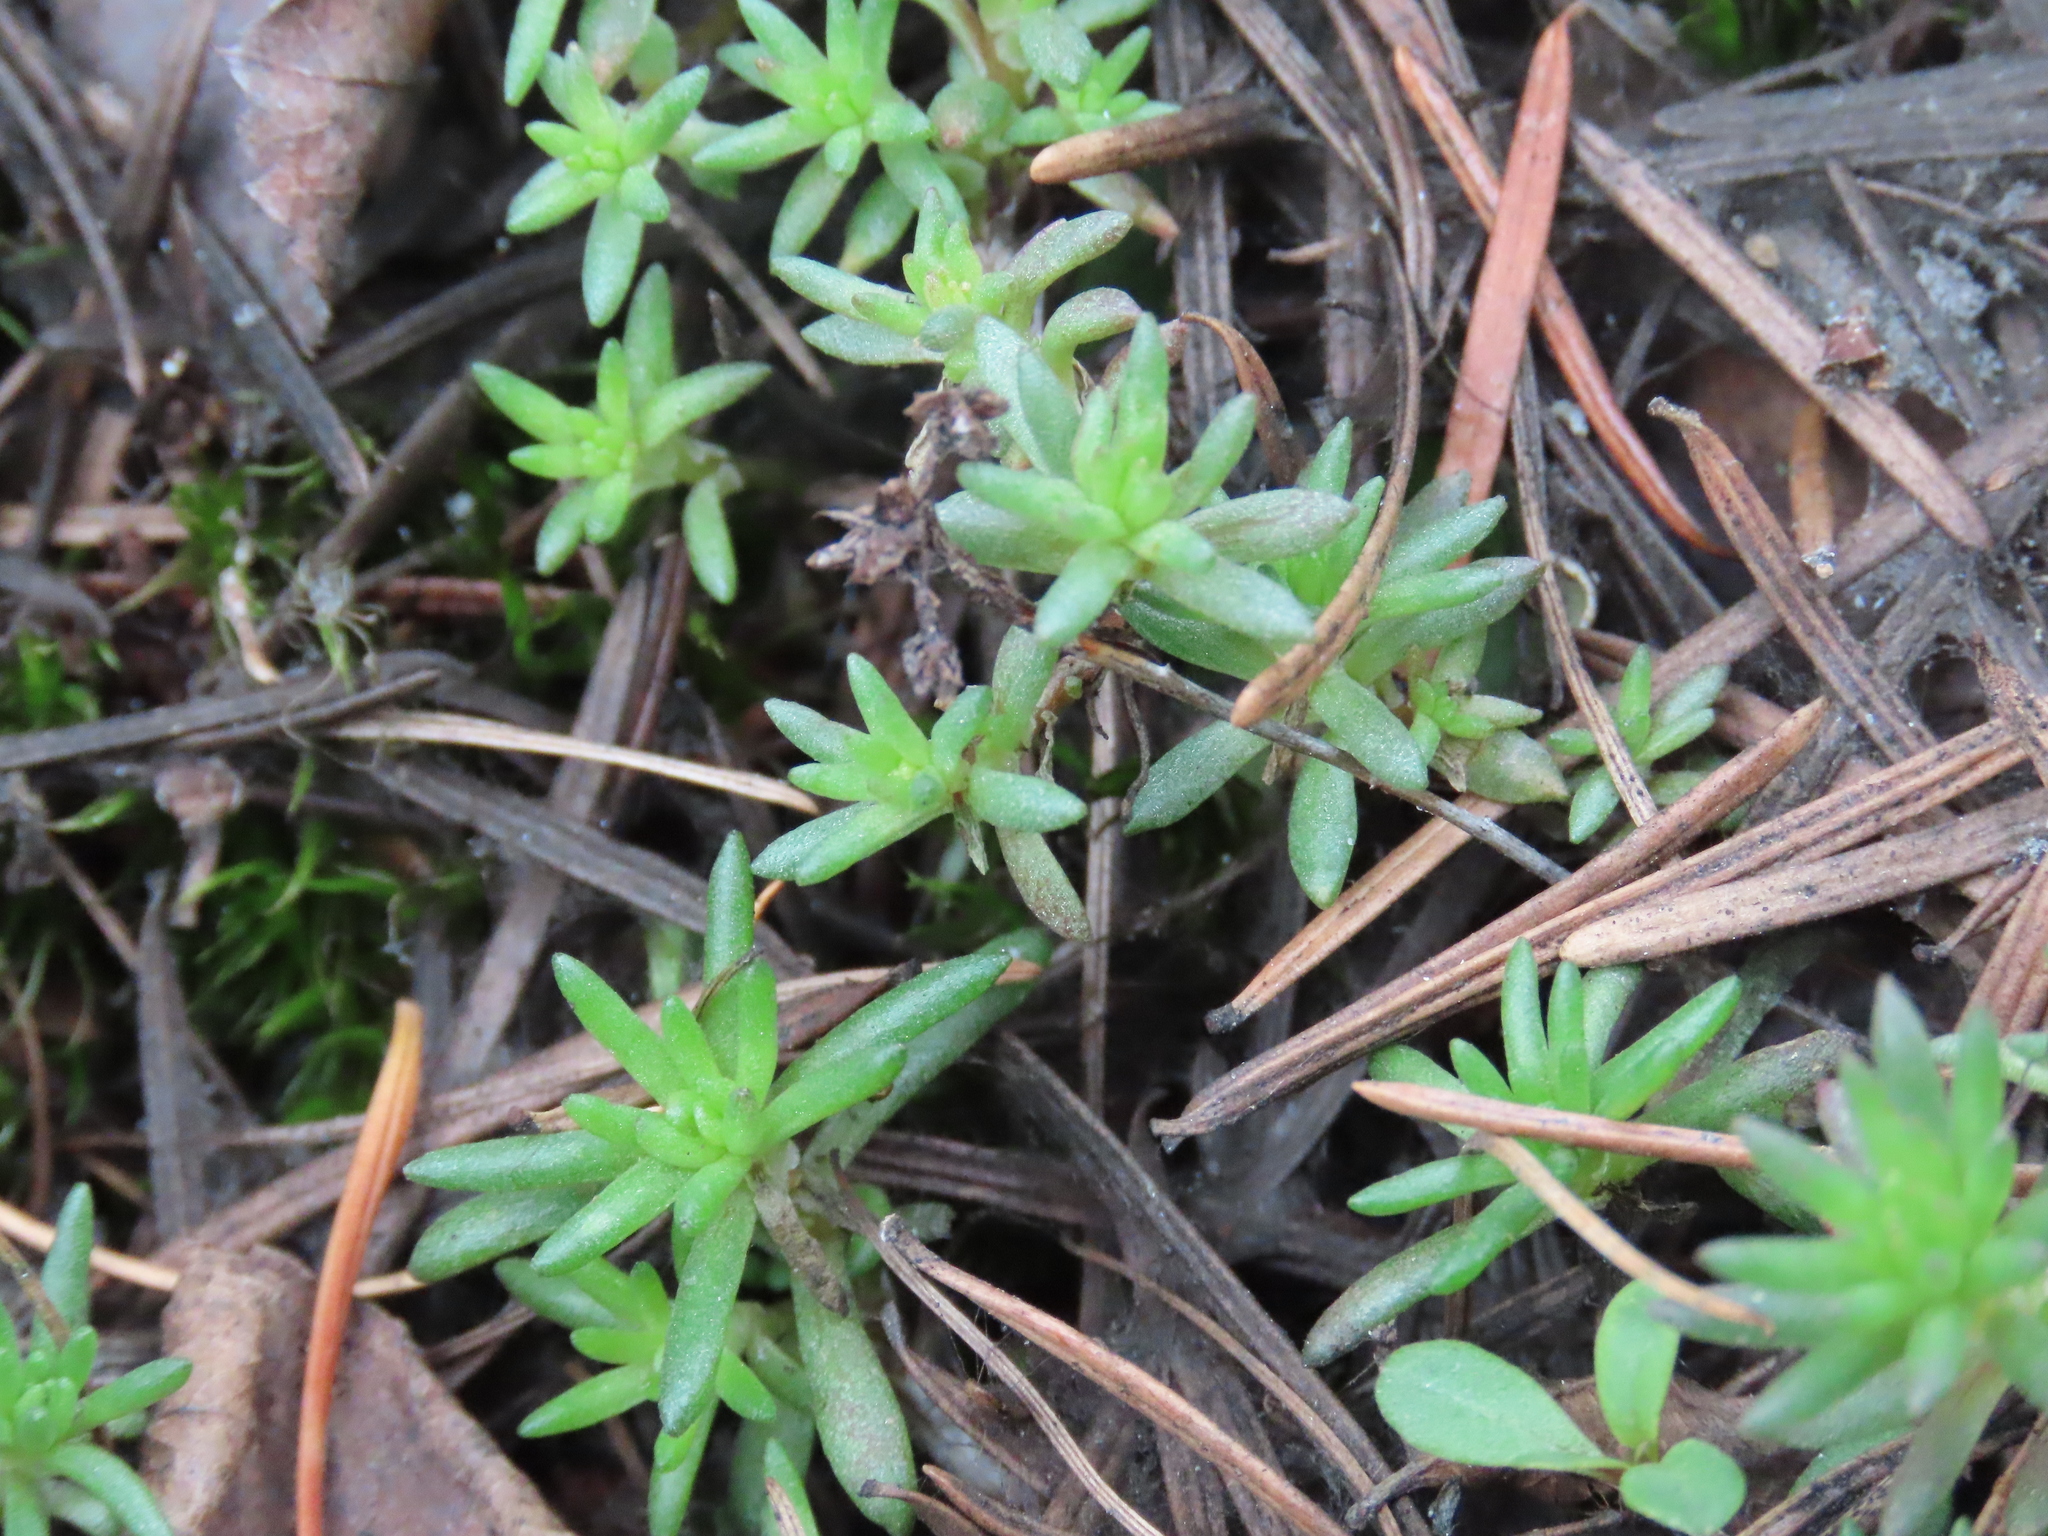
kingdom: Plantae
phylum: Tracheophyta
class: Magnoliopsida
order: Saxifragales
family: Crassulaceae
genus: Sedum
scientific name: Sedum stenopetalum
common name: Narrow-petaled stonecrop
